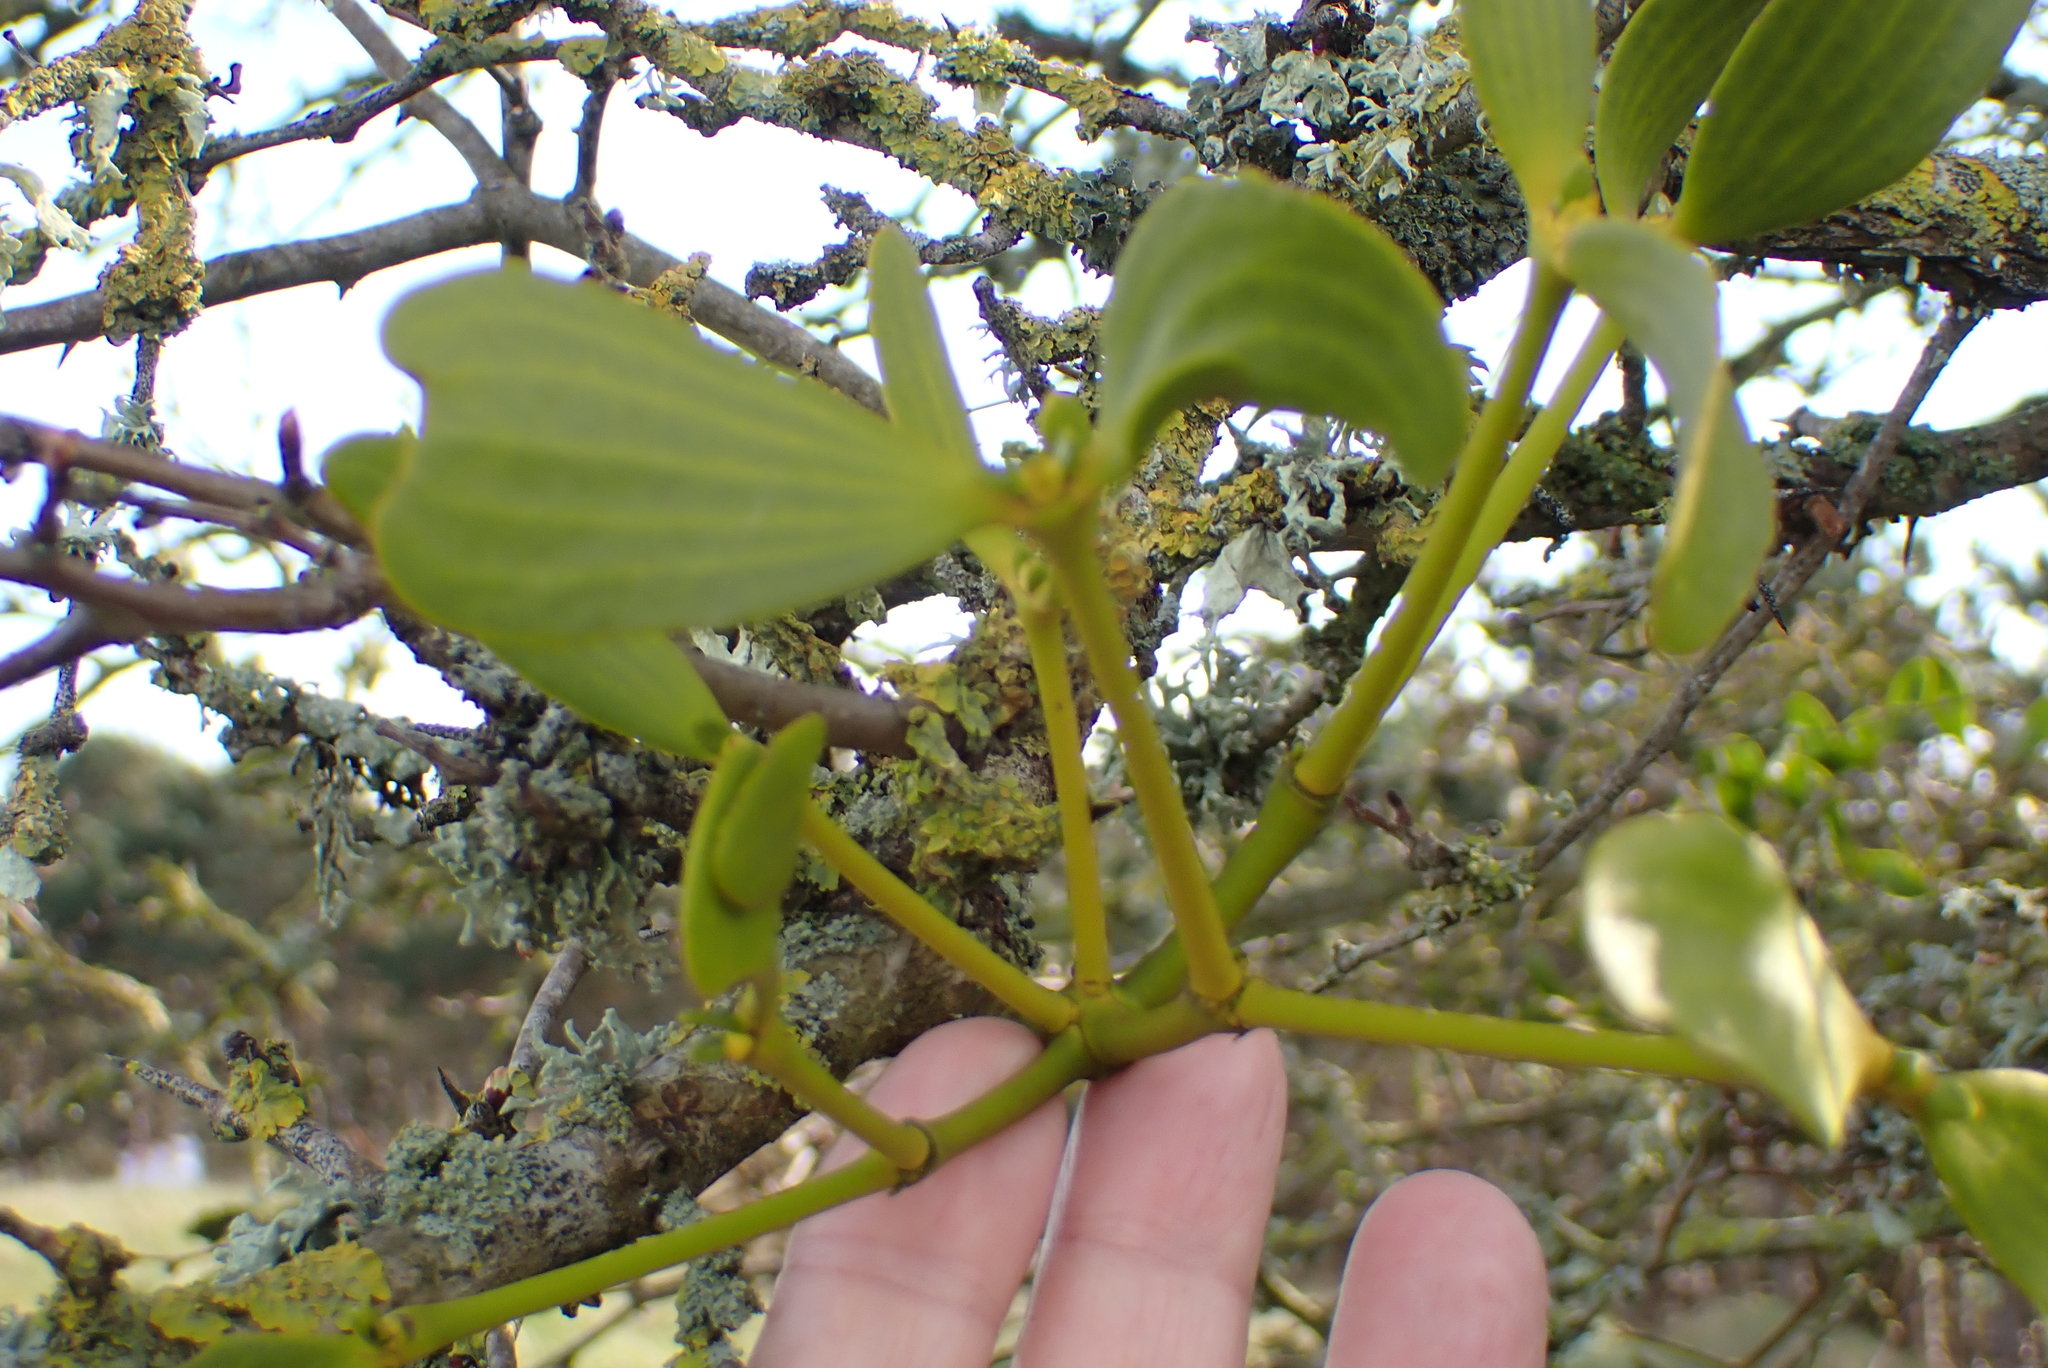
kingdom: Plantae
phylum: Tracheophyta
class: Magnoliopsida
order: Santalales
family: Viscaceae
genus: Viscum
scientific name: Viscum album
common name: Mistletoe
